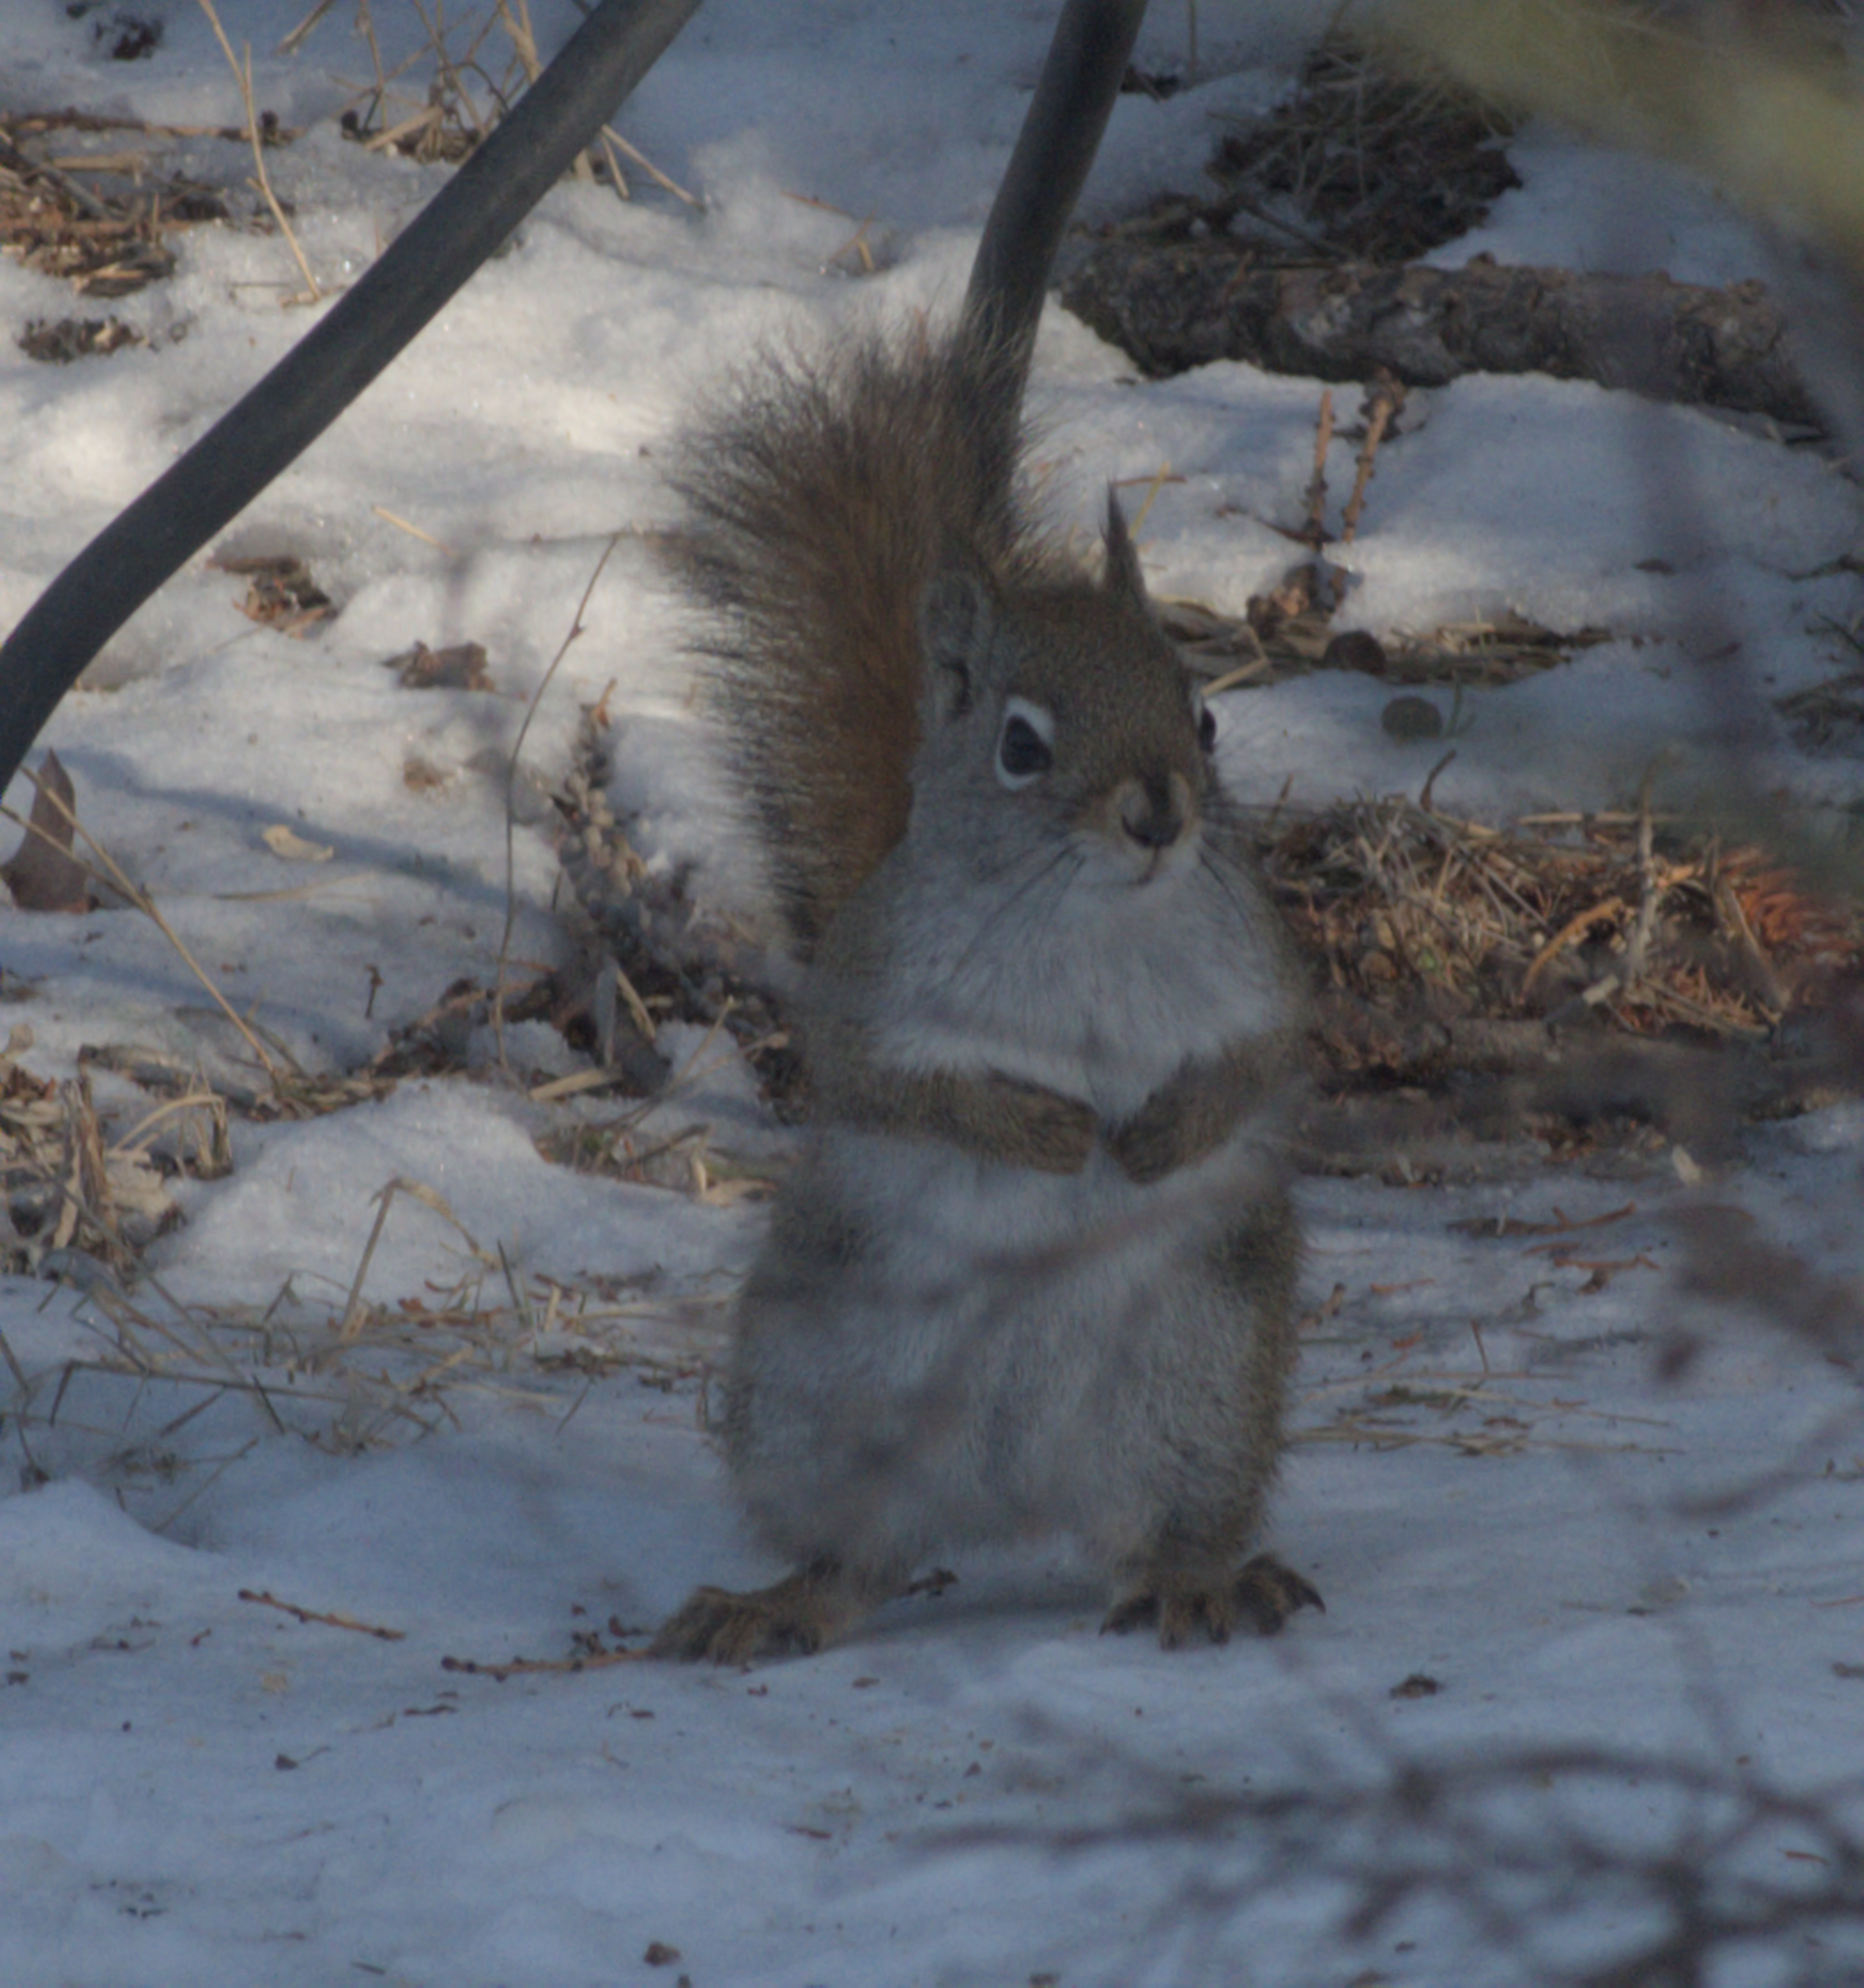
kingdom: Animalia
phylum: Chordata
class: Mammalia
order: Rodentia
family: Sciuridae
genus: Tamiasciurus
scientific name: Tamiasciurus hudsonicus
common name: Red squirrel
